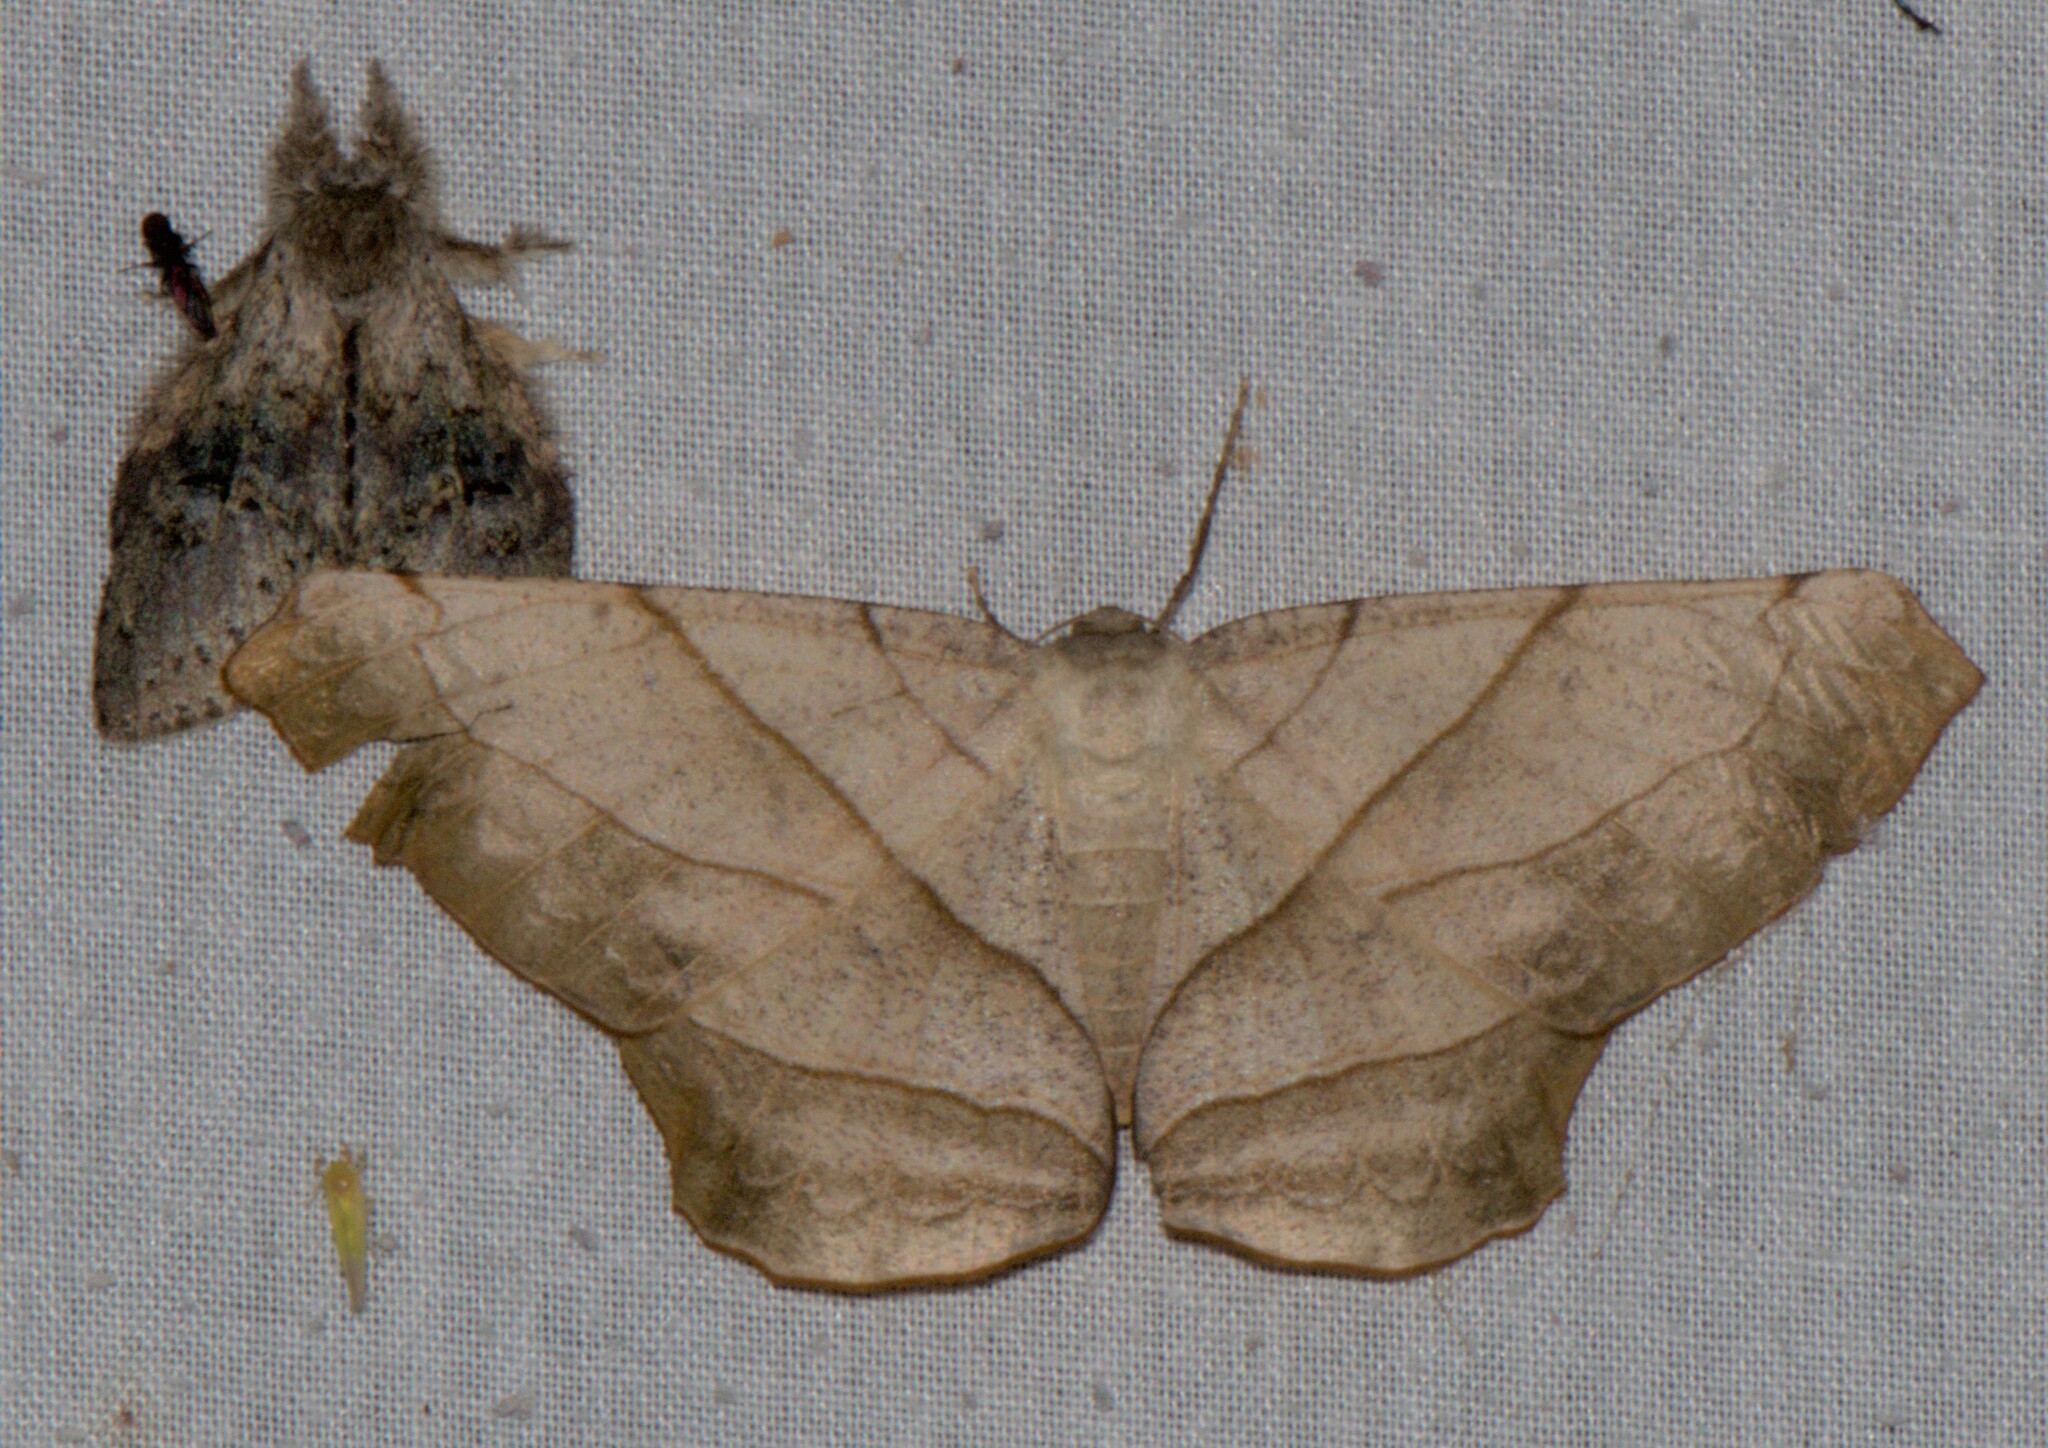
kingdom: Animalia
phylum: Arthropoda
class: Insecta
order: Lepidoptera
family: Geometridae
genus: Dalima
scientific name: Dalima truncataria
